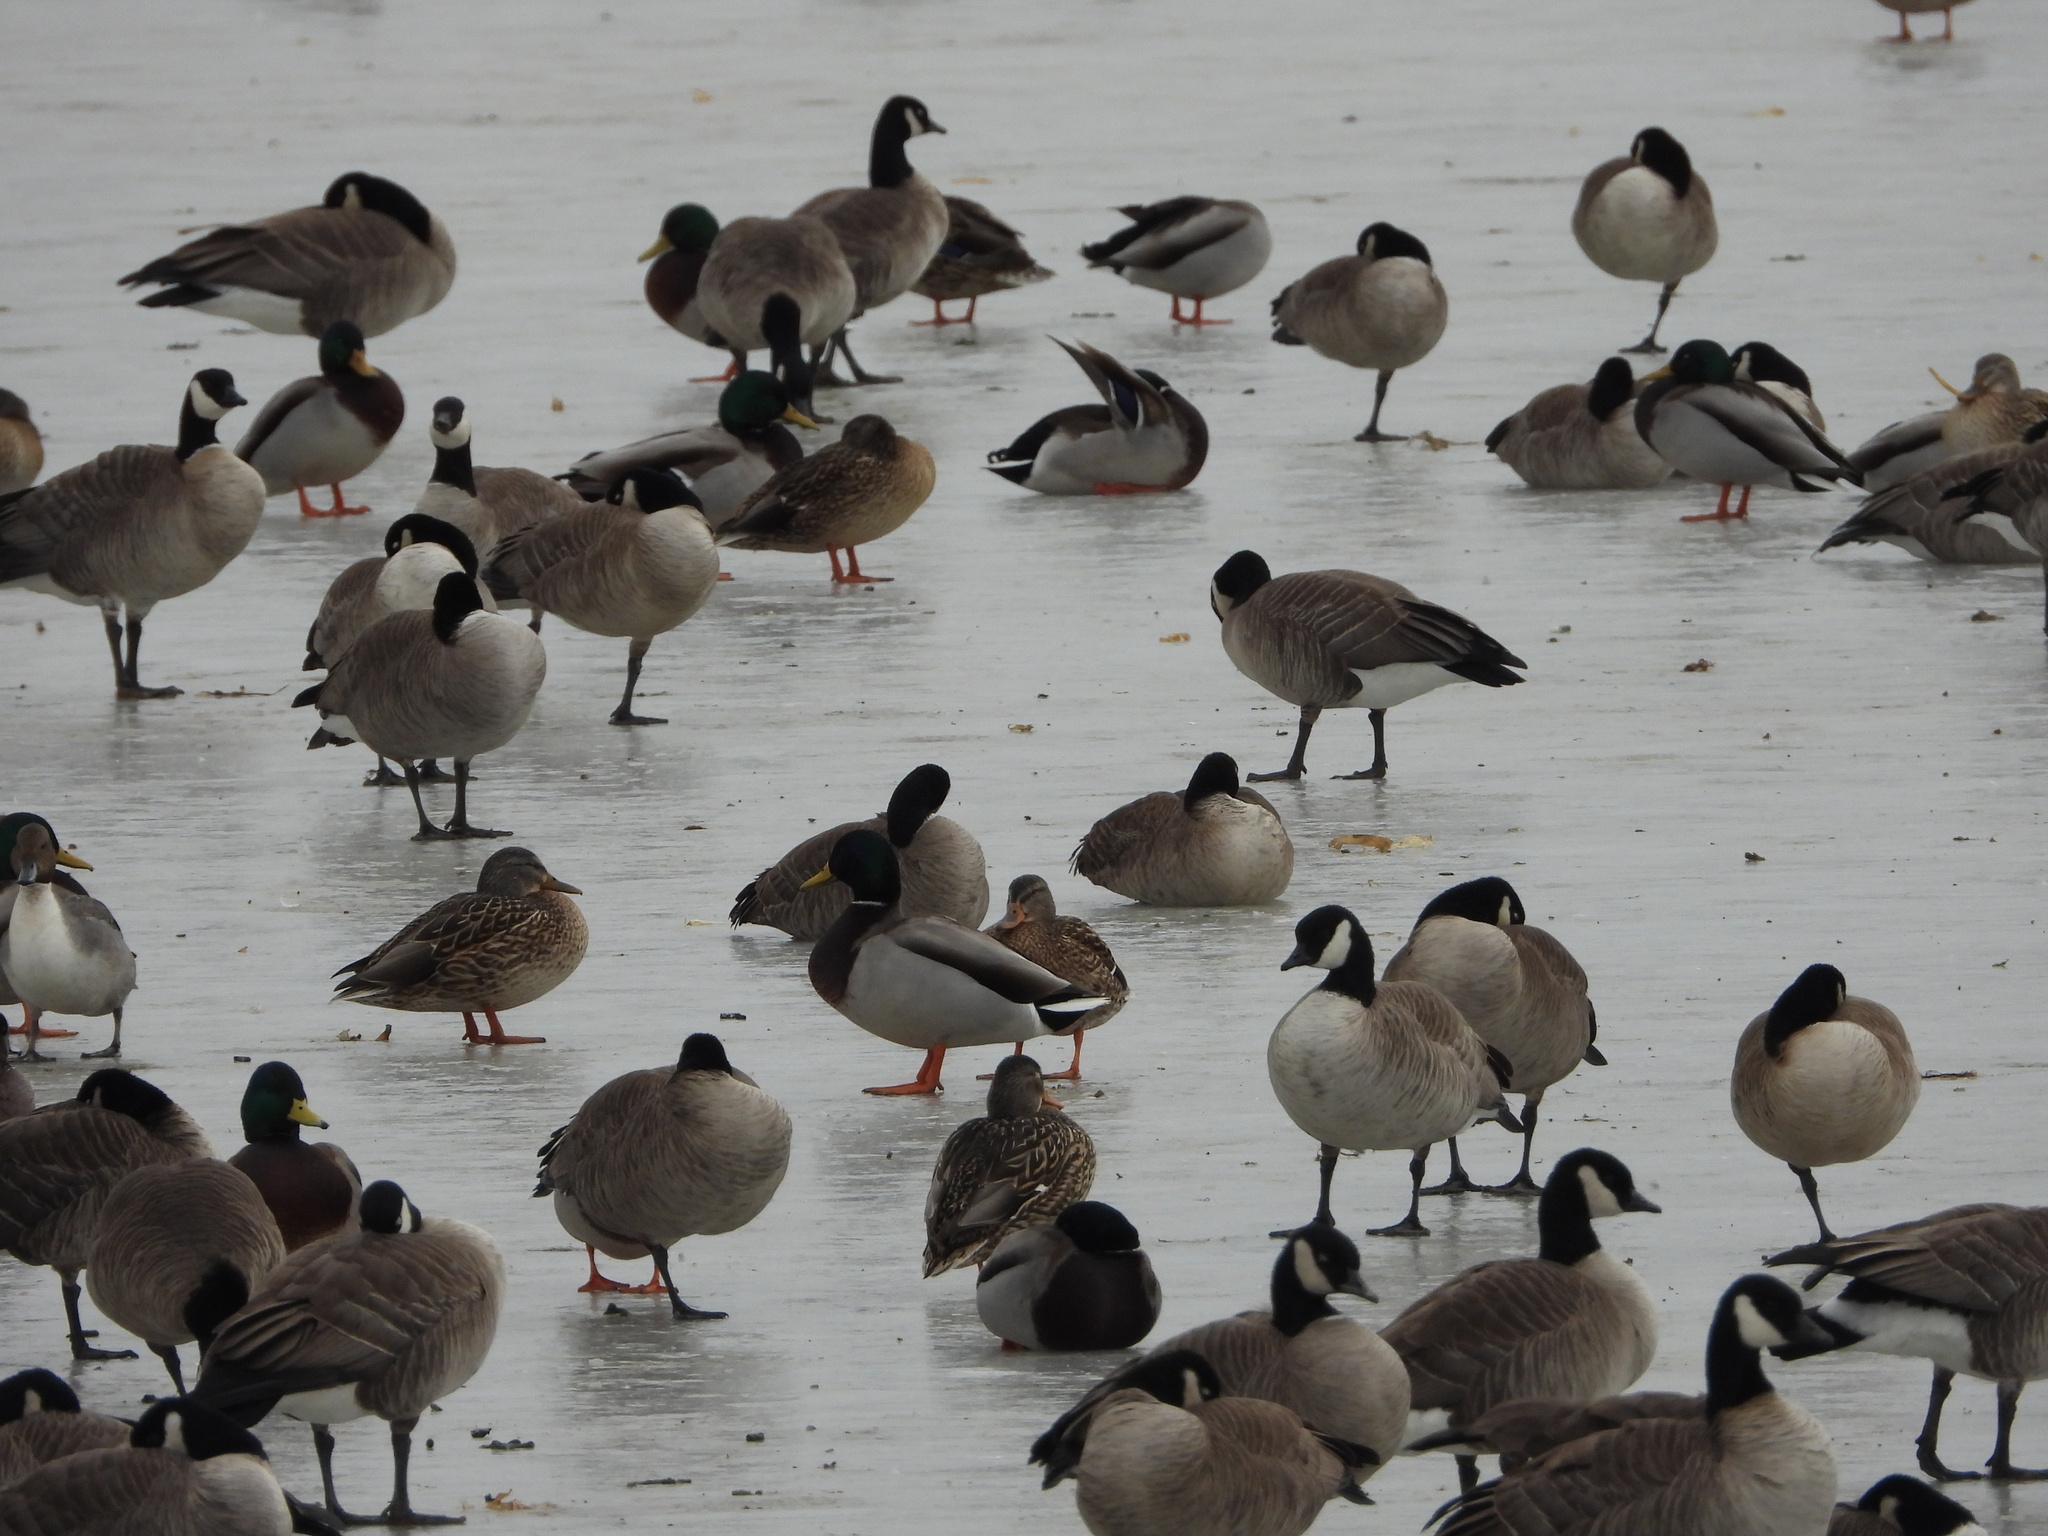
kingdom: Animalia
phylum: Chordata
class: Aves
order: Anseriformes
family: Anatidae
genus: Branta
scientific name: Branta hutchinsii
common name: Cackling goose
